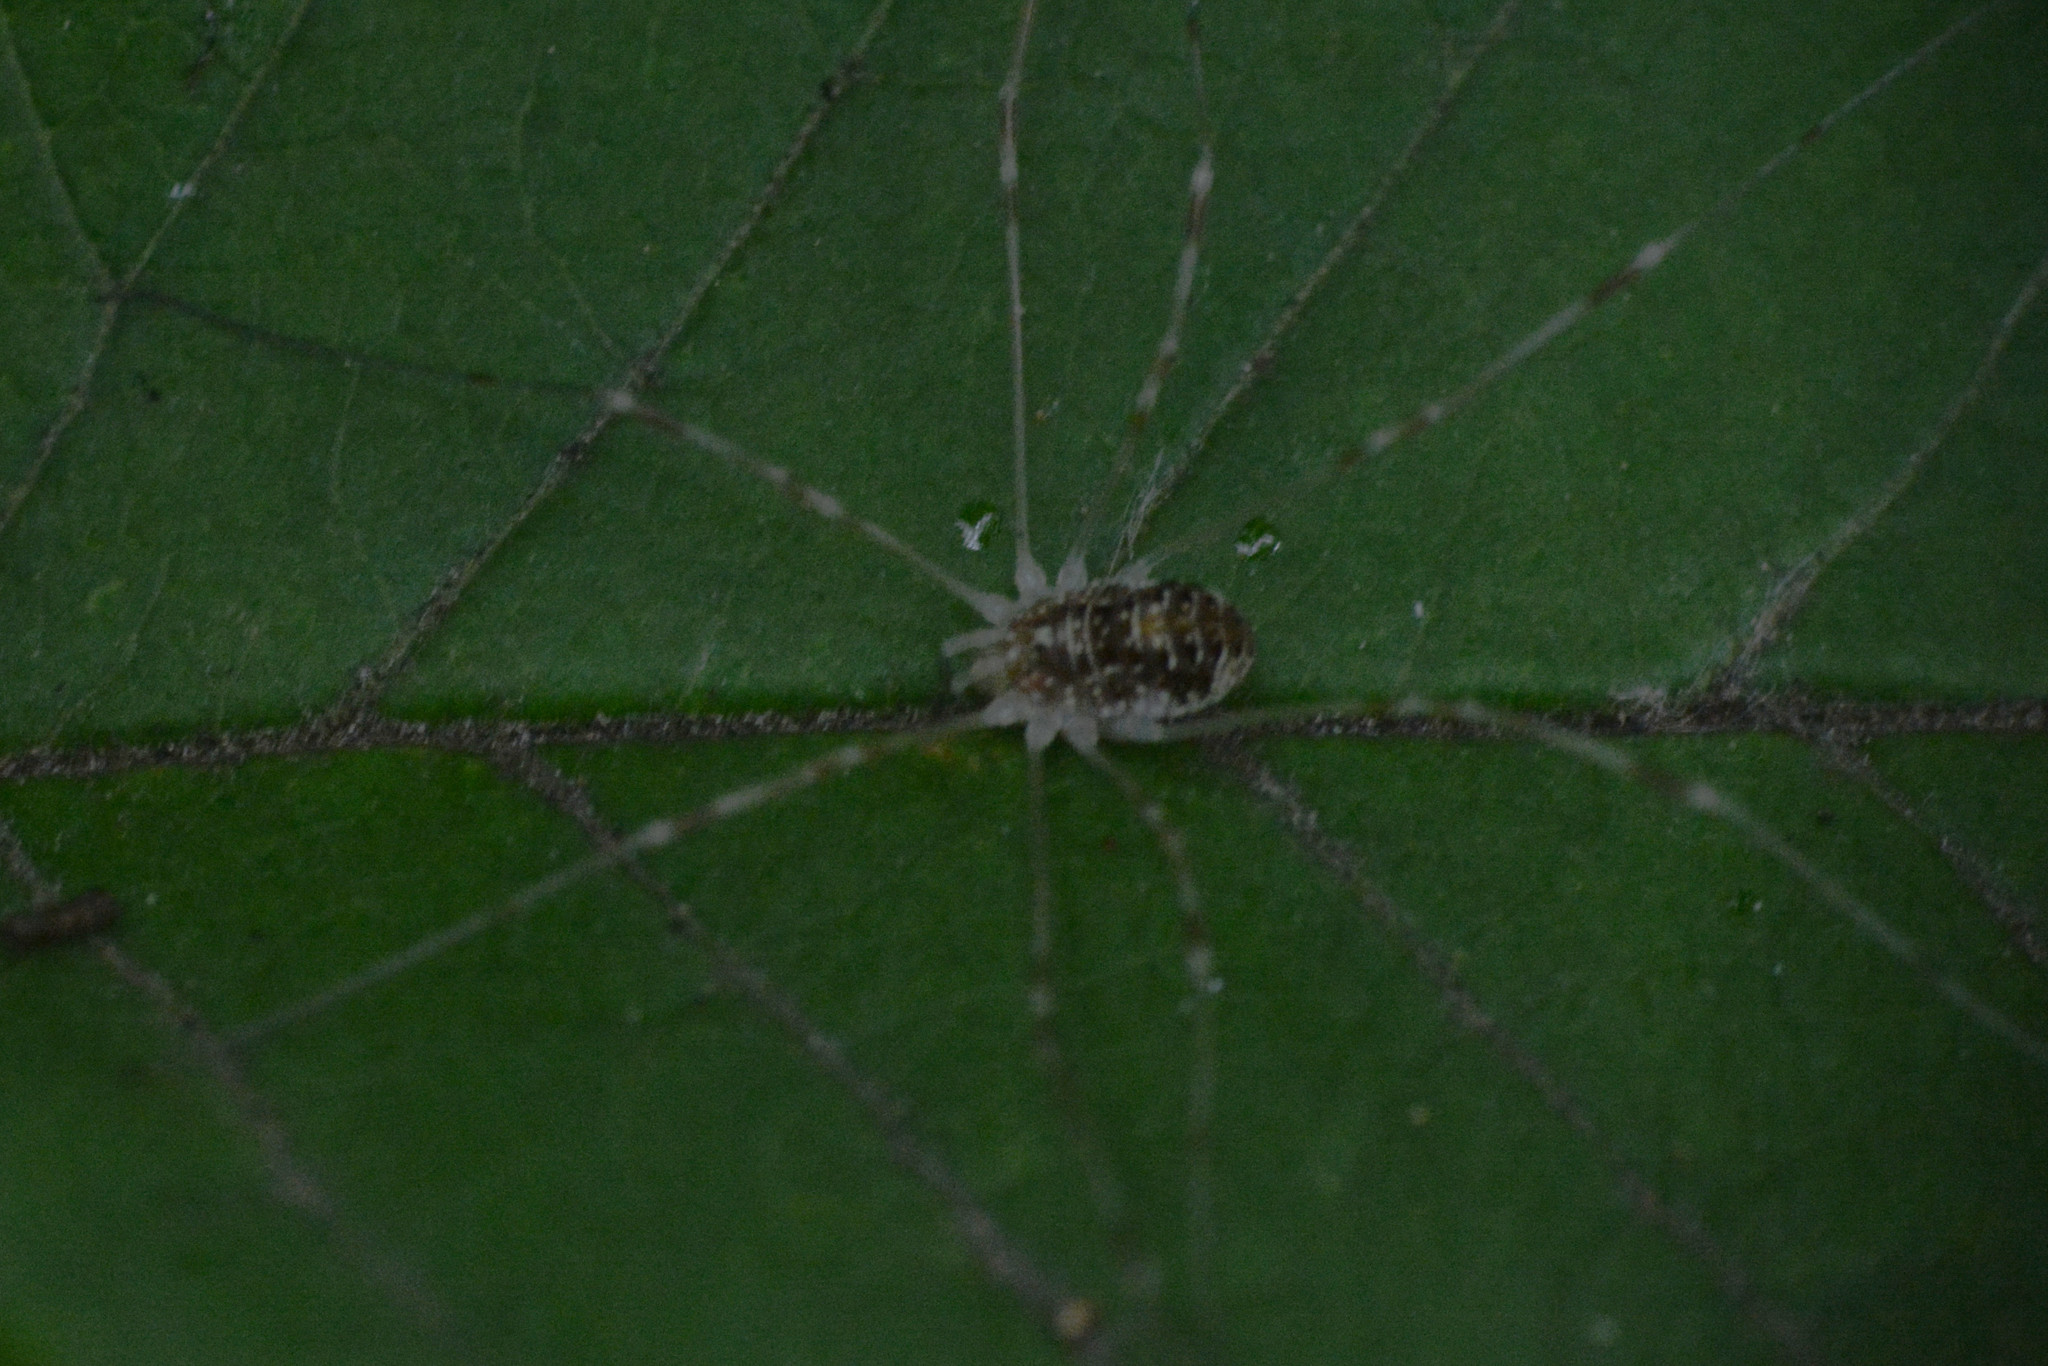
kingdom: Animalia
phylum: Arthropoda
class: Arachnida
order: Opiliones
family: Phalangiidae
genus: Opilio
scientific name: Opilio canestrinii
